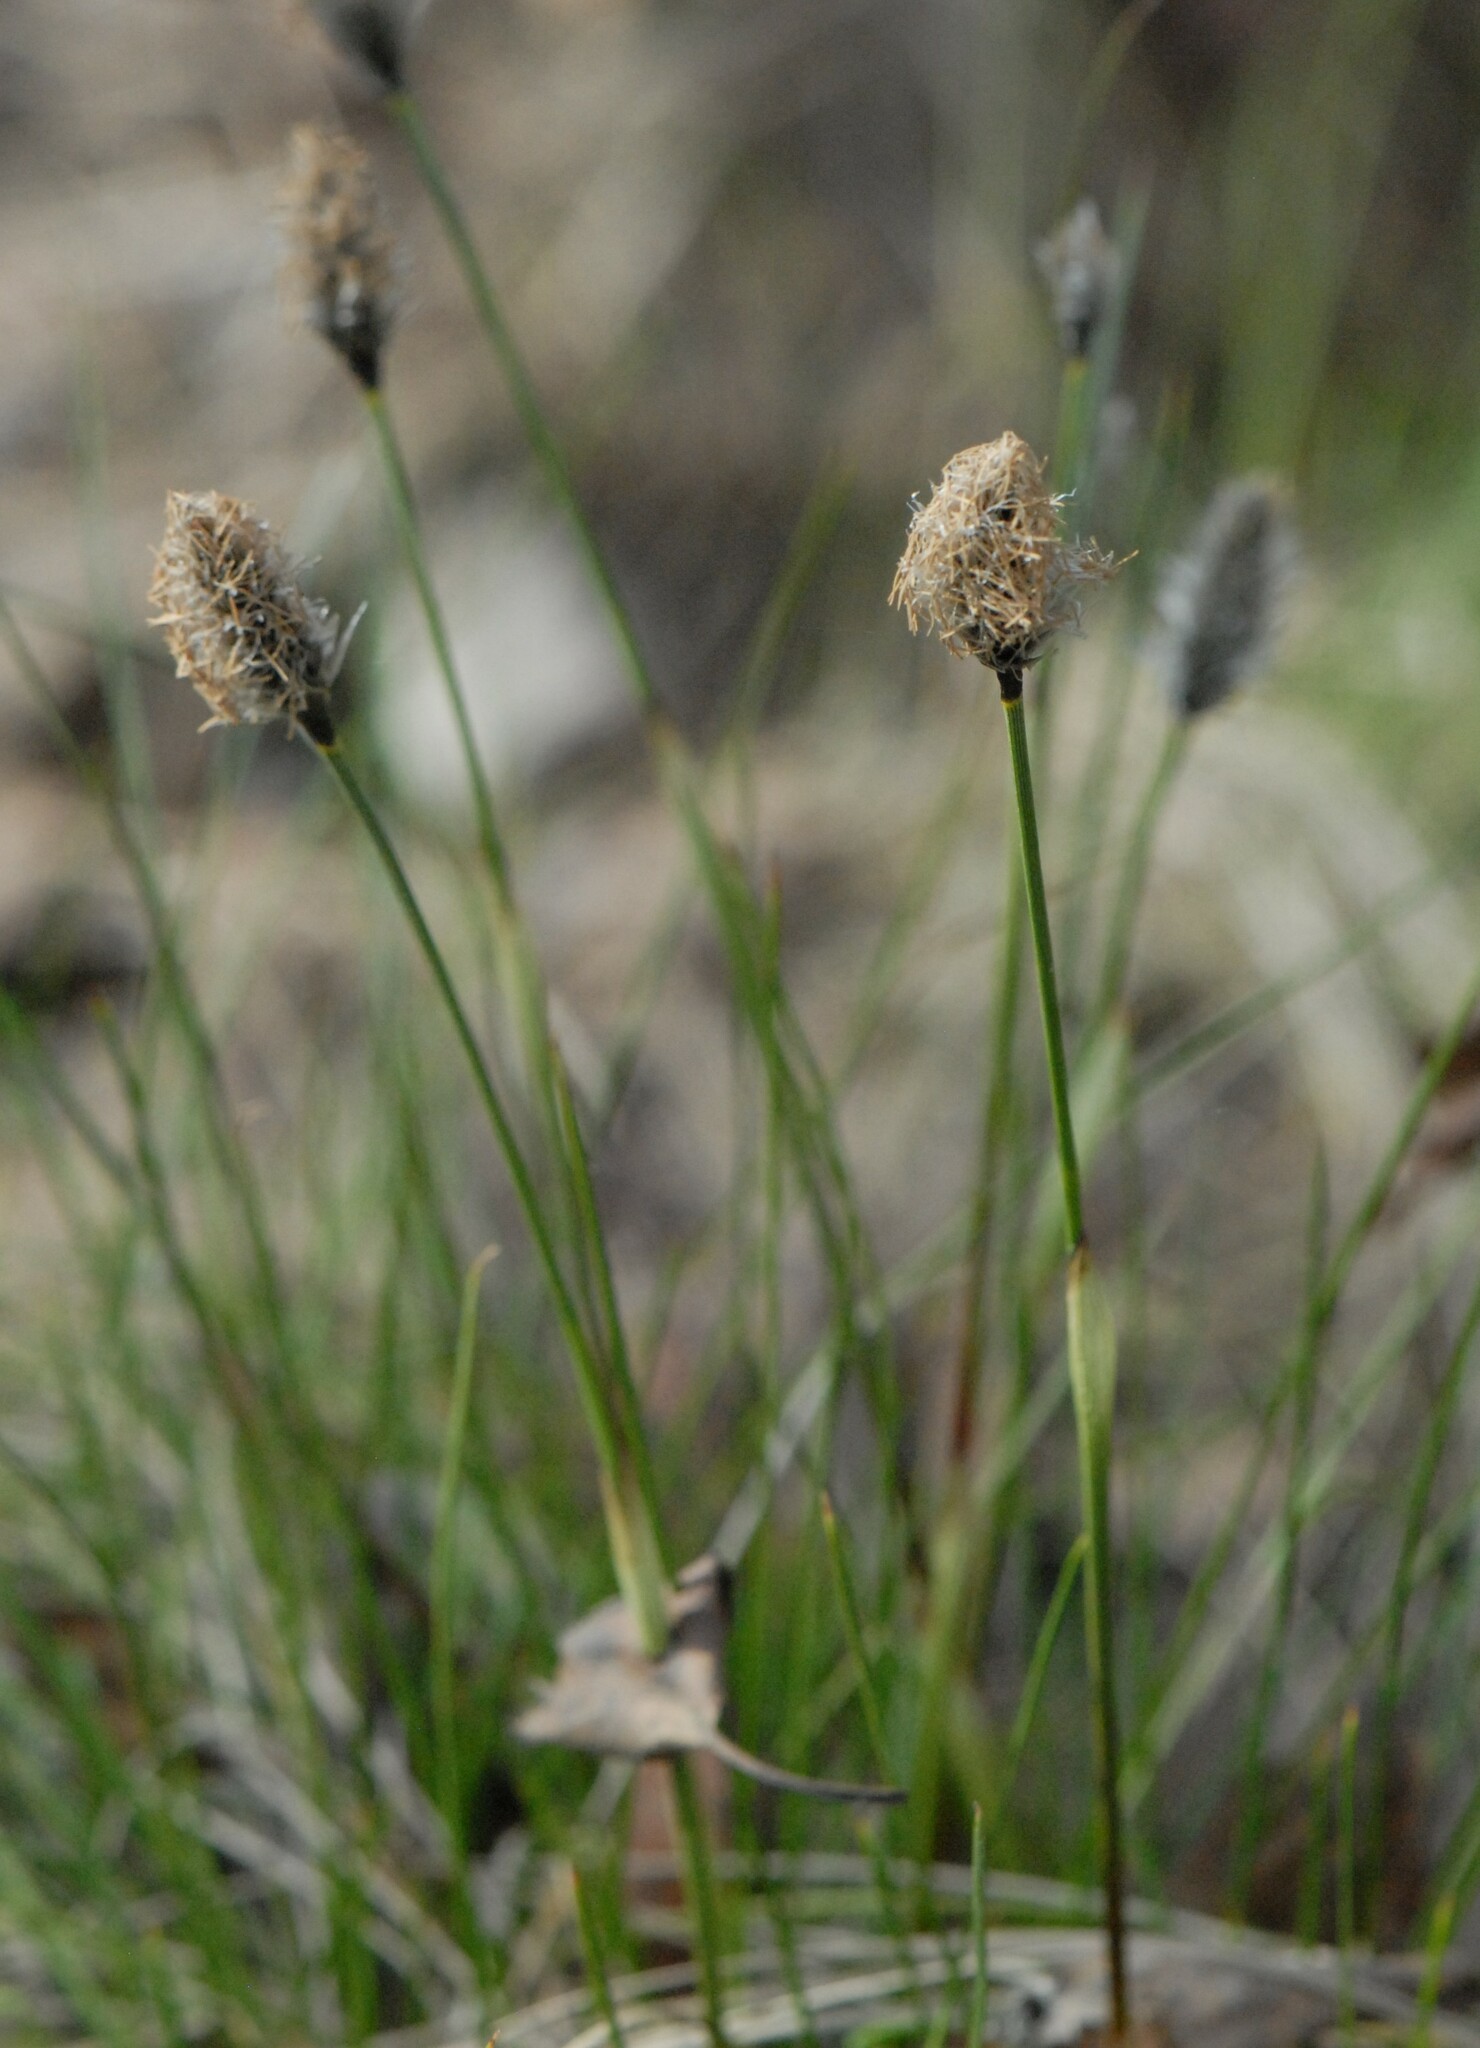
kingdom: Plantae
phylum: Tracheophyta
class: Liliopsida
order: Poales
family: Cyperaceae
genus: Eriophorum
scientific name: Eriophorum vaginatum
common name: Hare's-tail cottongrass
